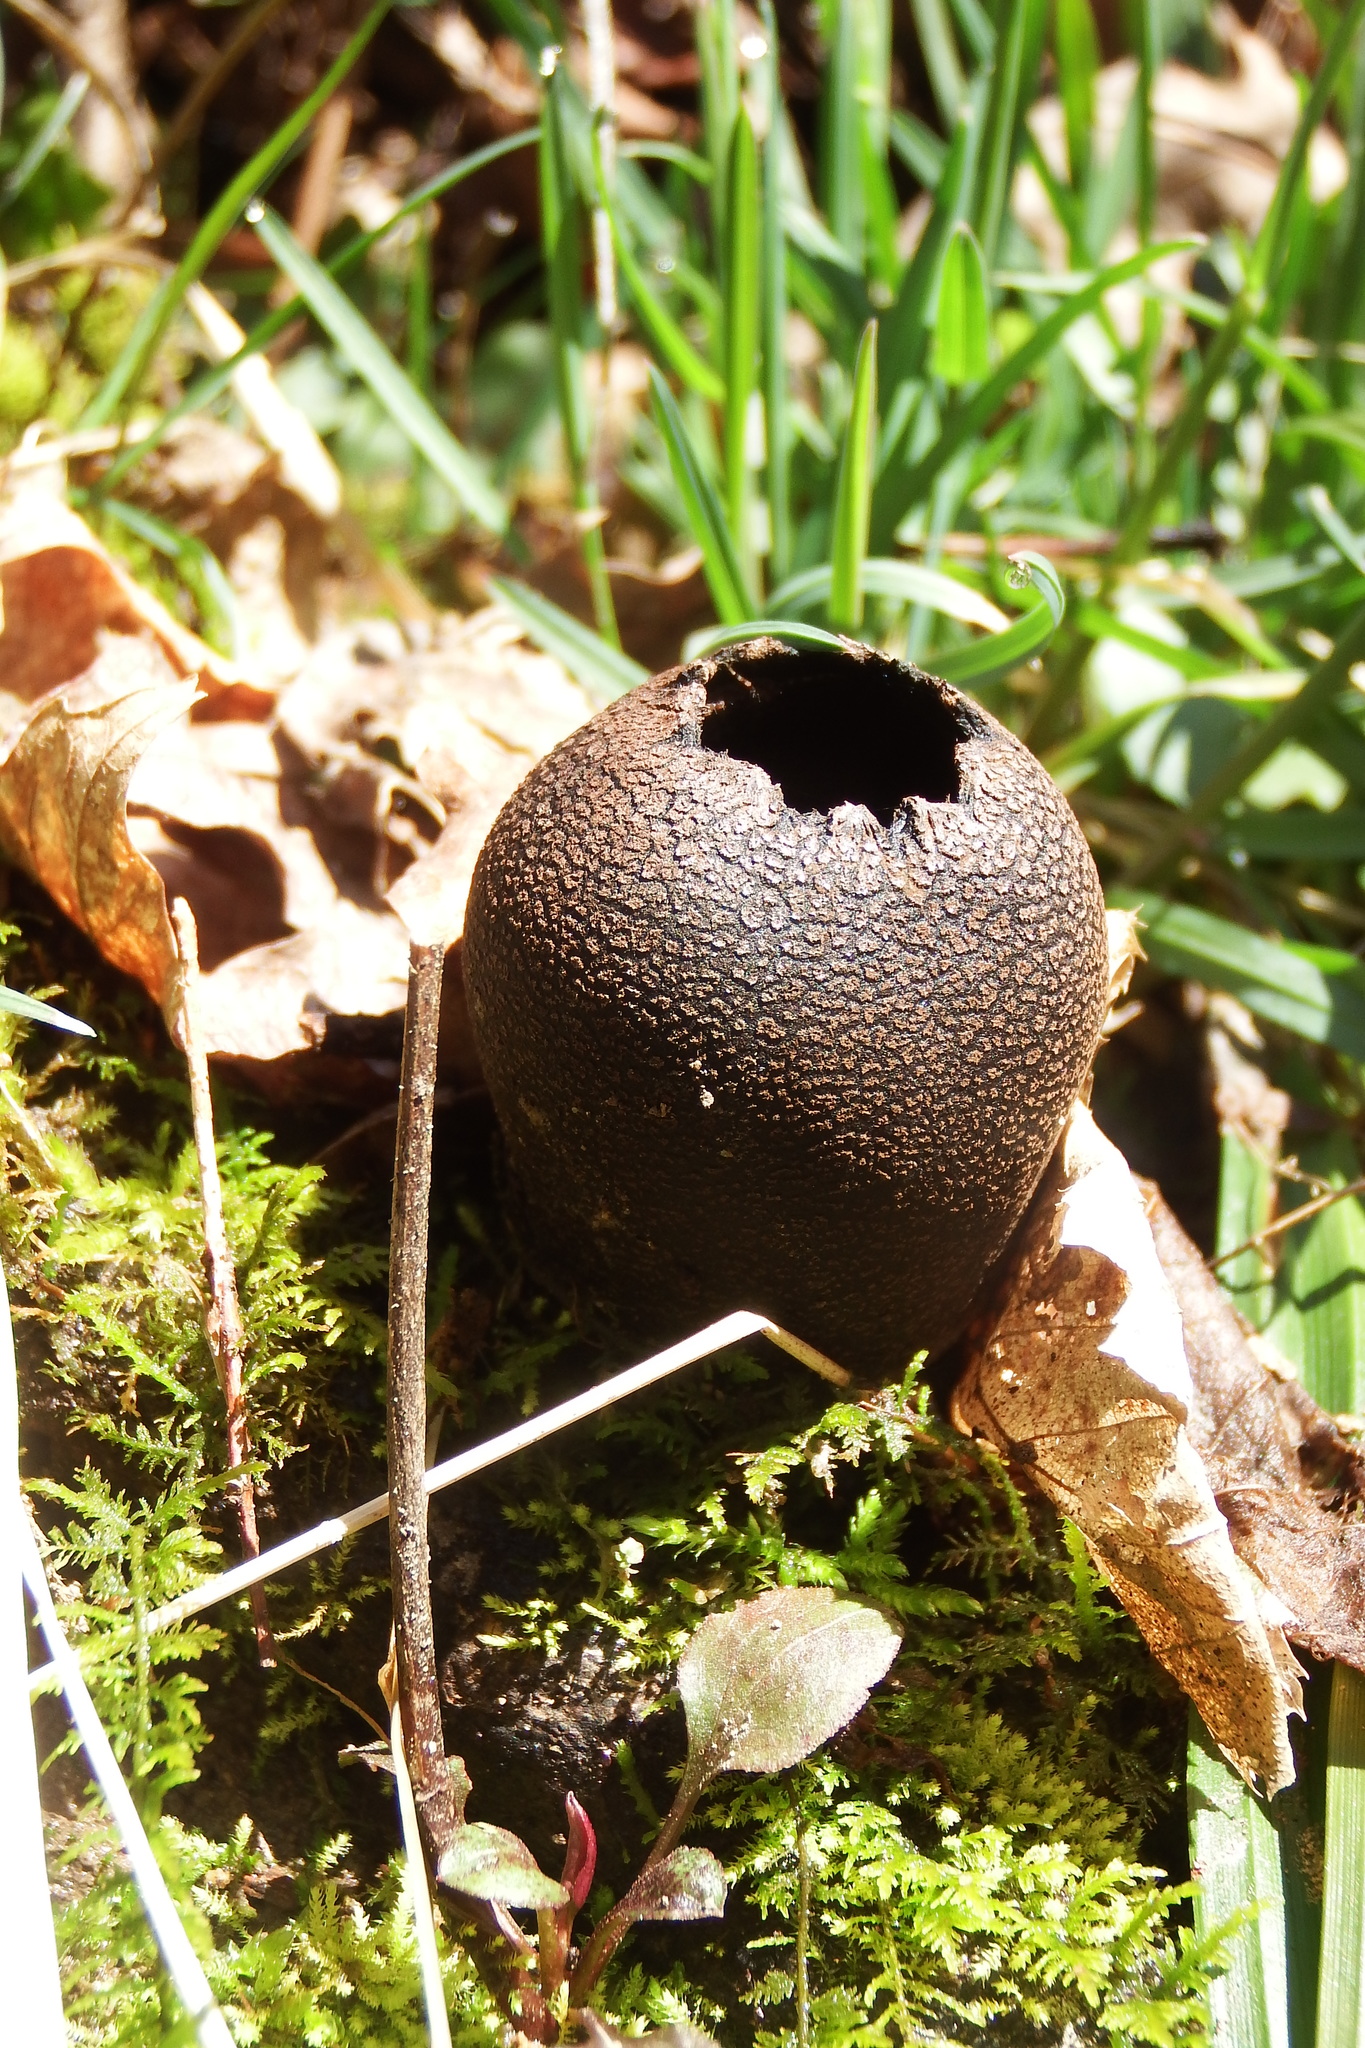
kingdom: Fungi
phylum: Ascomycota
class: Pezizomycetes
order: Pezizales
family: Sarcosomataceae
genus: Urnula
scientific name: Urnula craterium
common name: Devil's urn
